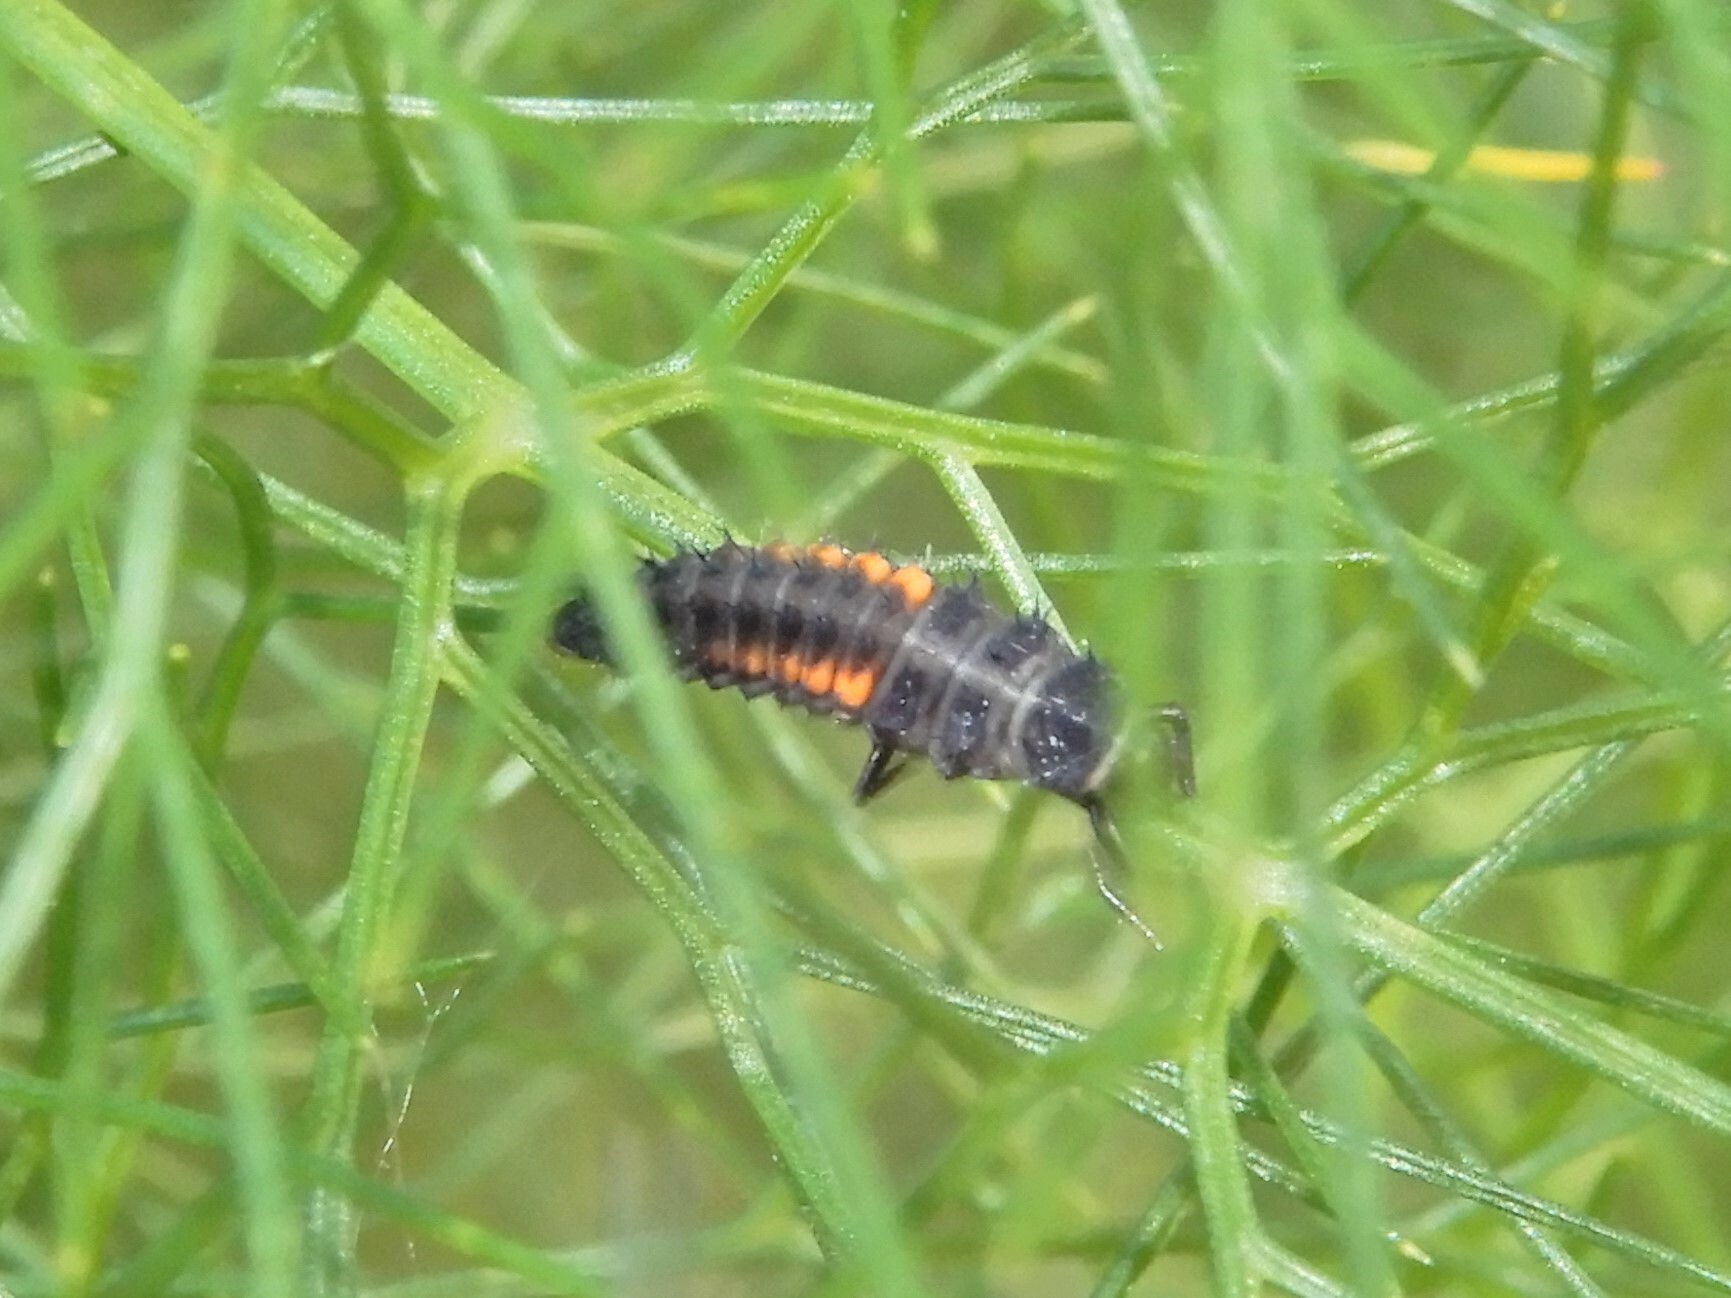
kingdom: Animalia
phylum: Arthropoda
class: Insecta
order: Coleoptera
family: Coccinellidae
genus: Harmonia
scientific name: Harmonia axyridis
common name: Harlequin ladybird
